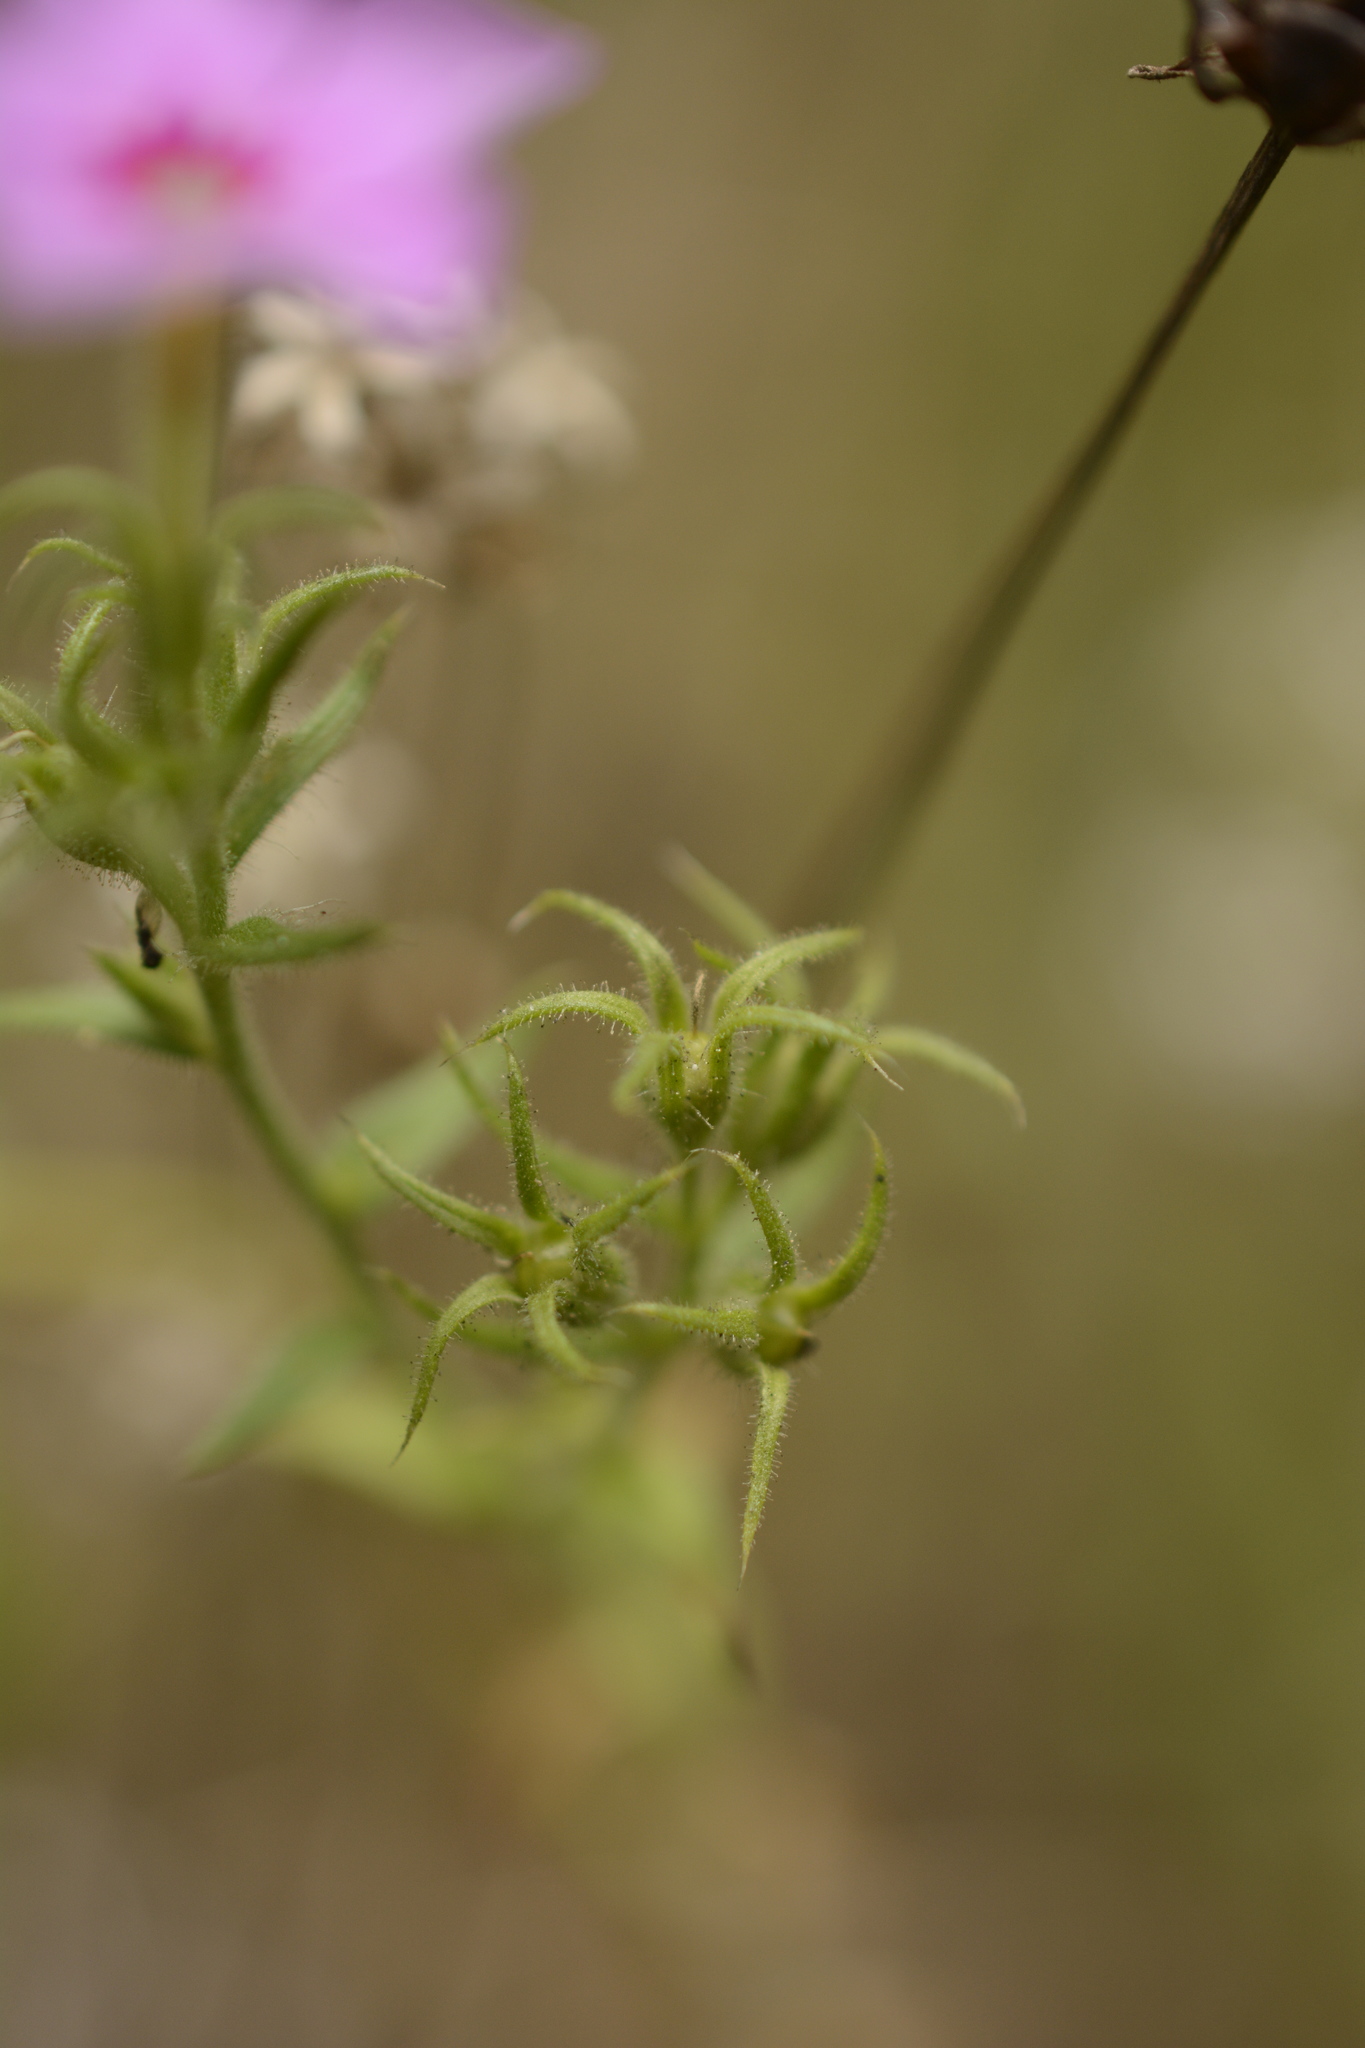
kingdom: Plantae
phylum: Tracheophyta
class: Magnoliopsida
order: Ericales
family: Polemoniaceae
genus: Phlox
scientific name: Phlox drummondii
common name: Drummond's phlox
